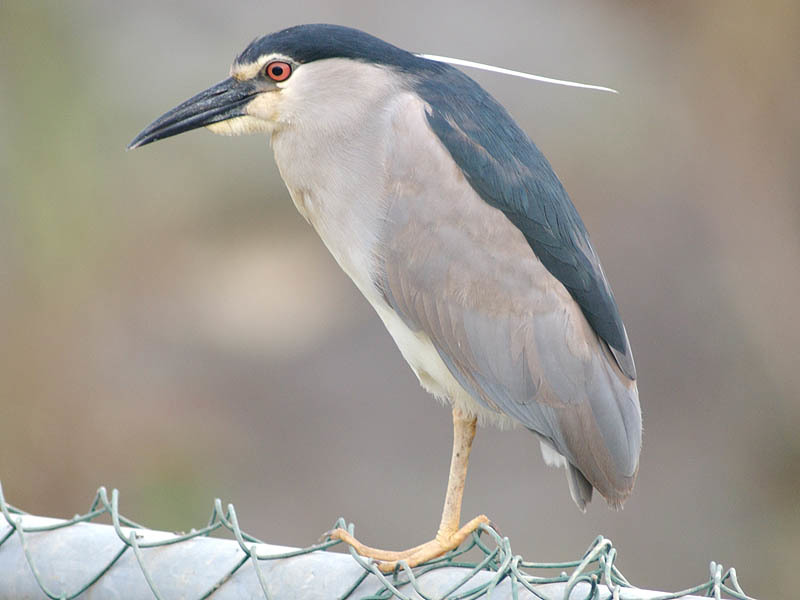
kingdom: Animalia
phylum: Chordata
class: Aves
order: Pelecaniformes
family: Ardeidae
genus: Nycticorax
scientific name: Nycticorax nycticorax
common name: Black-crowned night heron
